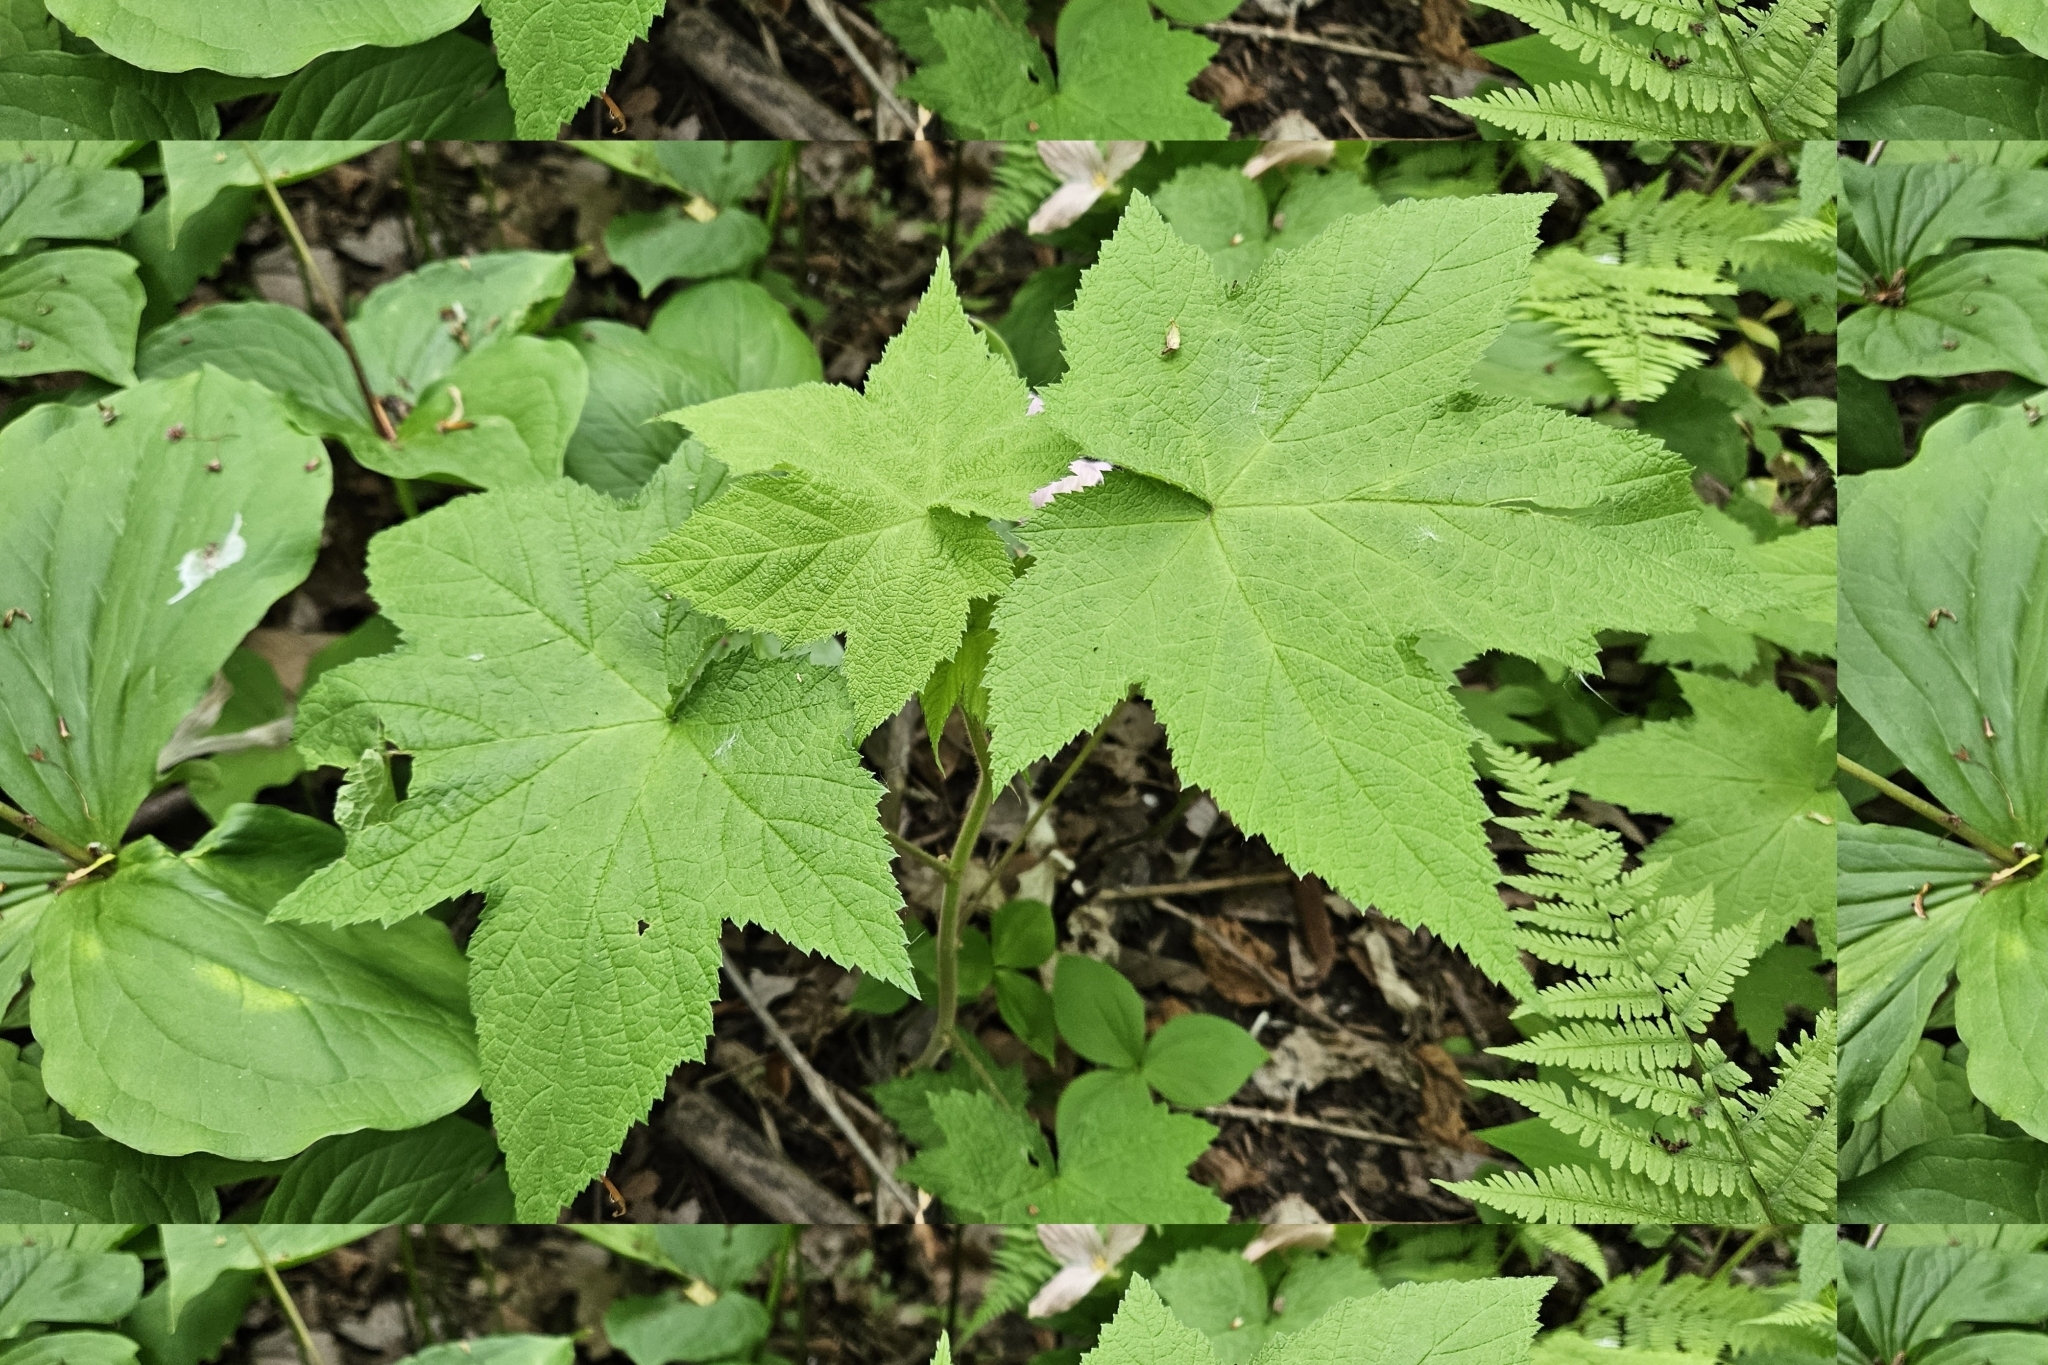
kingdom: Plantae
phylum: Tracheophyta
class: Magnoliopsida
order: Rosales
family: Rosaceae
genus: Rubus
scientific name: Rubus odoratus
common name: Purple-flowered raspberry
